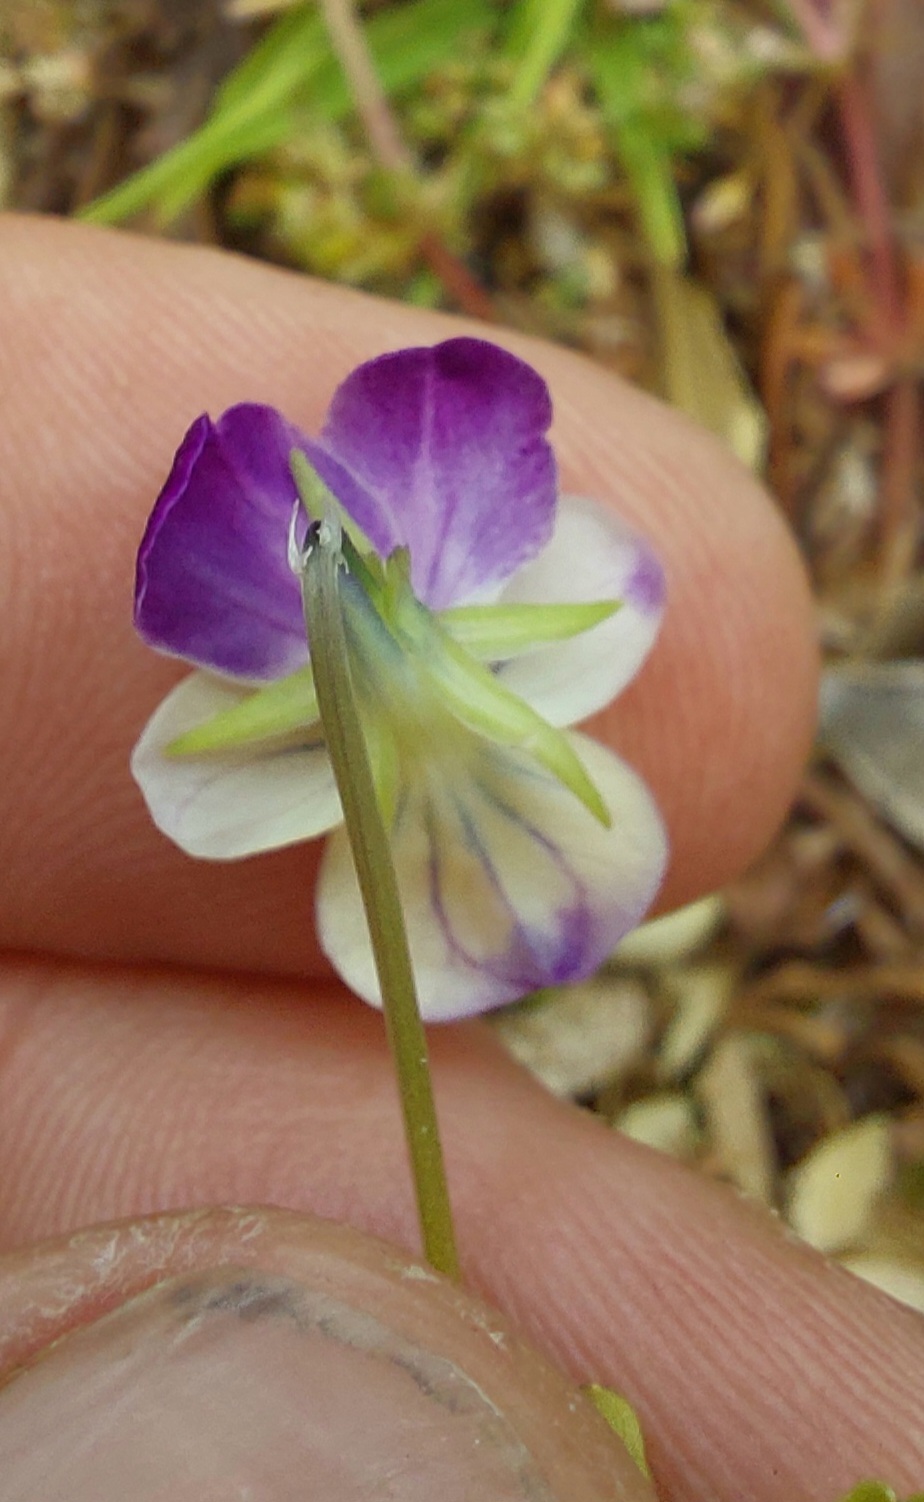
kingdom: Plantae
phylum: Tracheophyta
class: Magnoliopsida
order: Malpighiales
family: Violaceae
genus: Viola
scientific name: Viola williamsii
